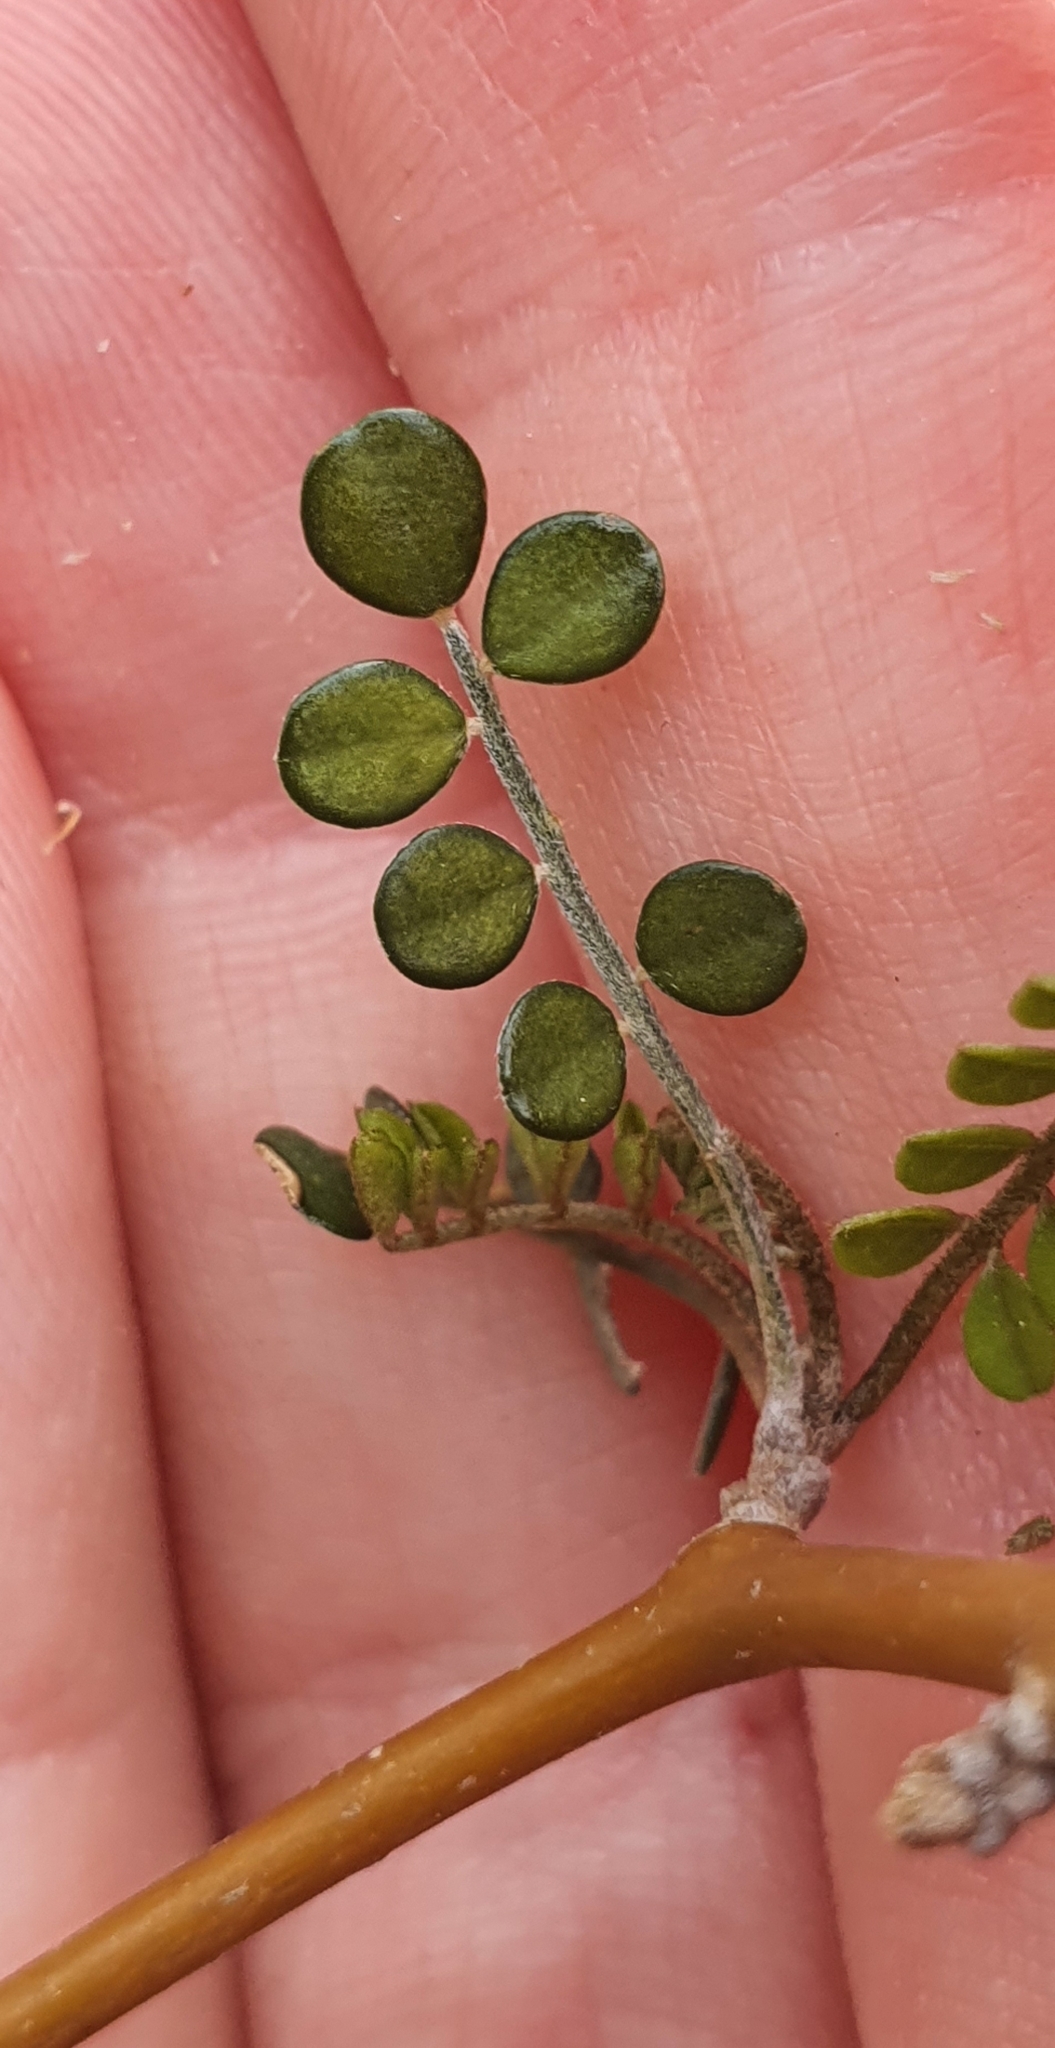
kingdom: Plantae
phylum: Tracheophyta
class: Magnoliopsida
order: Fabales
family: Fabaceae
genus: Sophora
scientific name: Sophora microphylla
